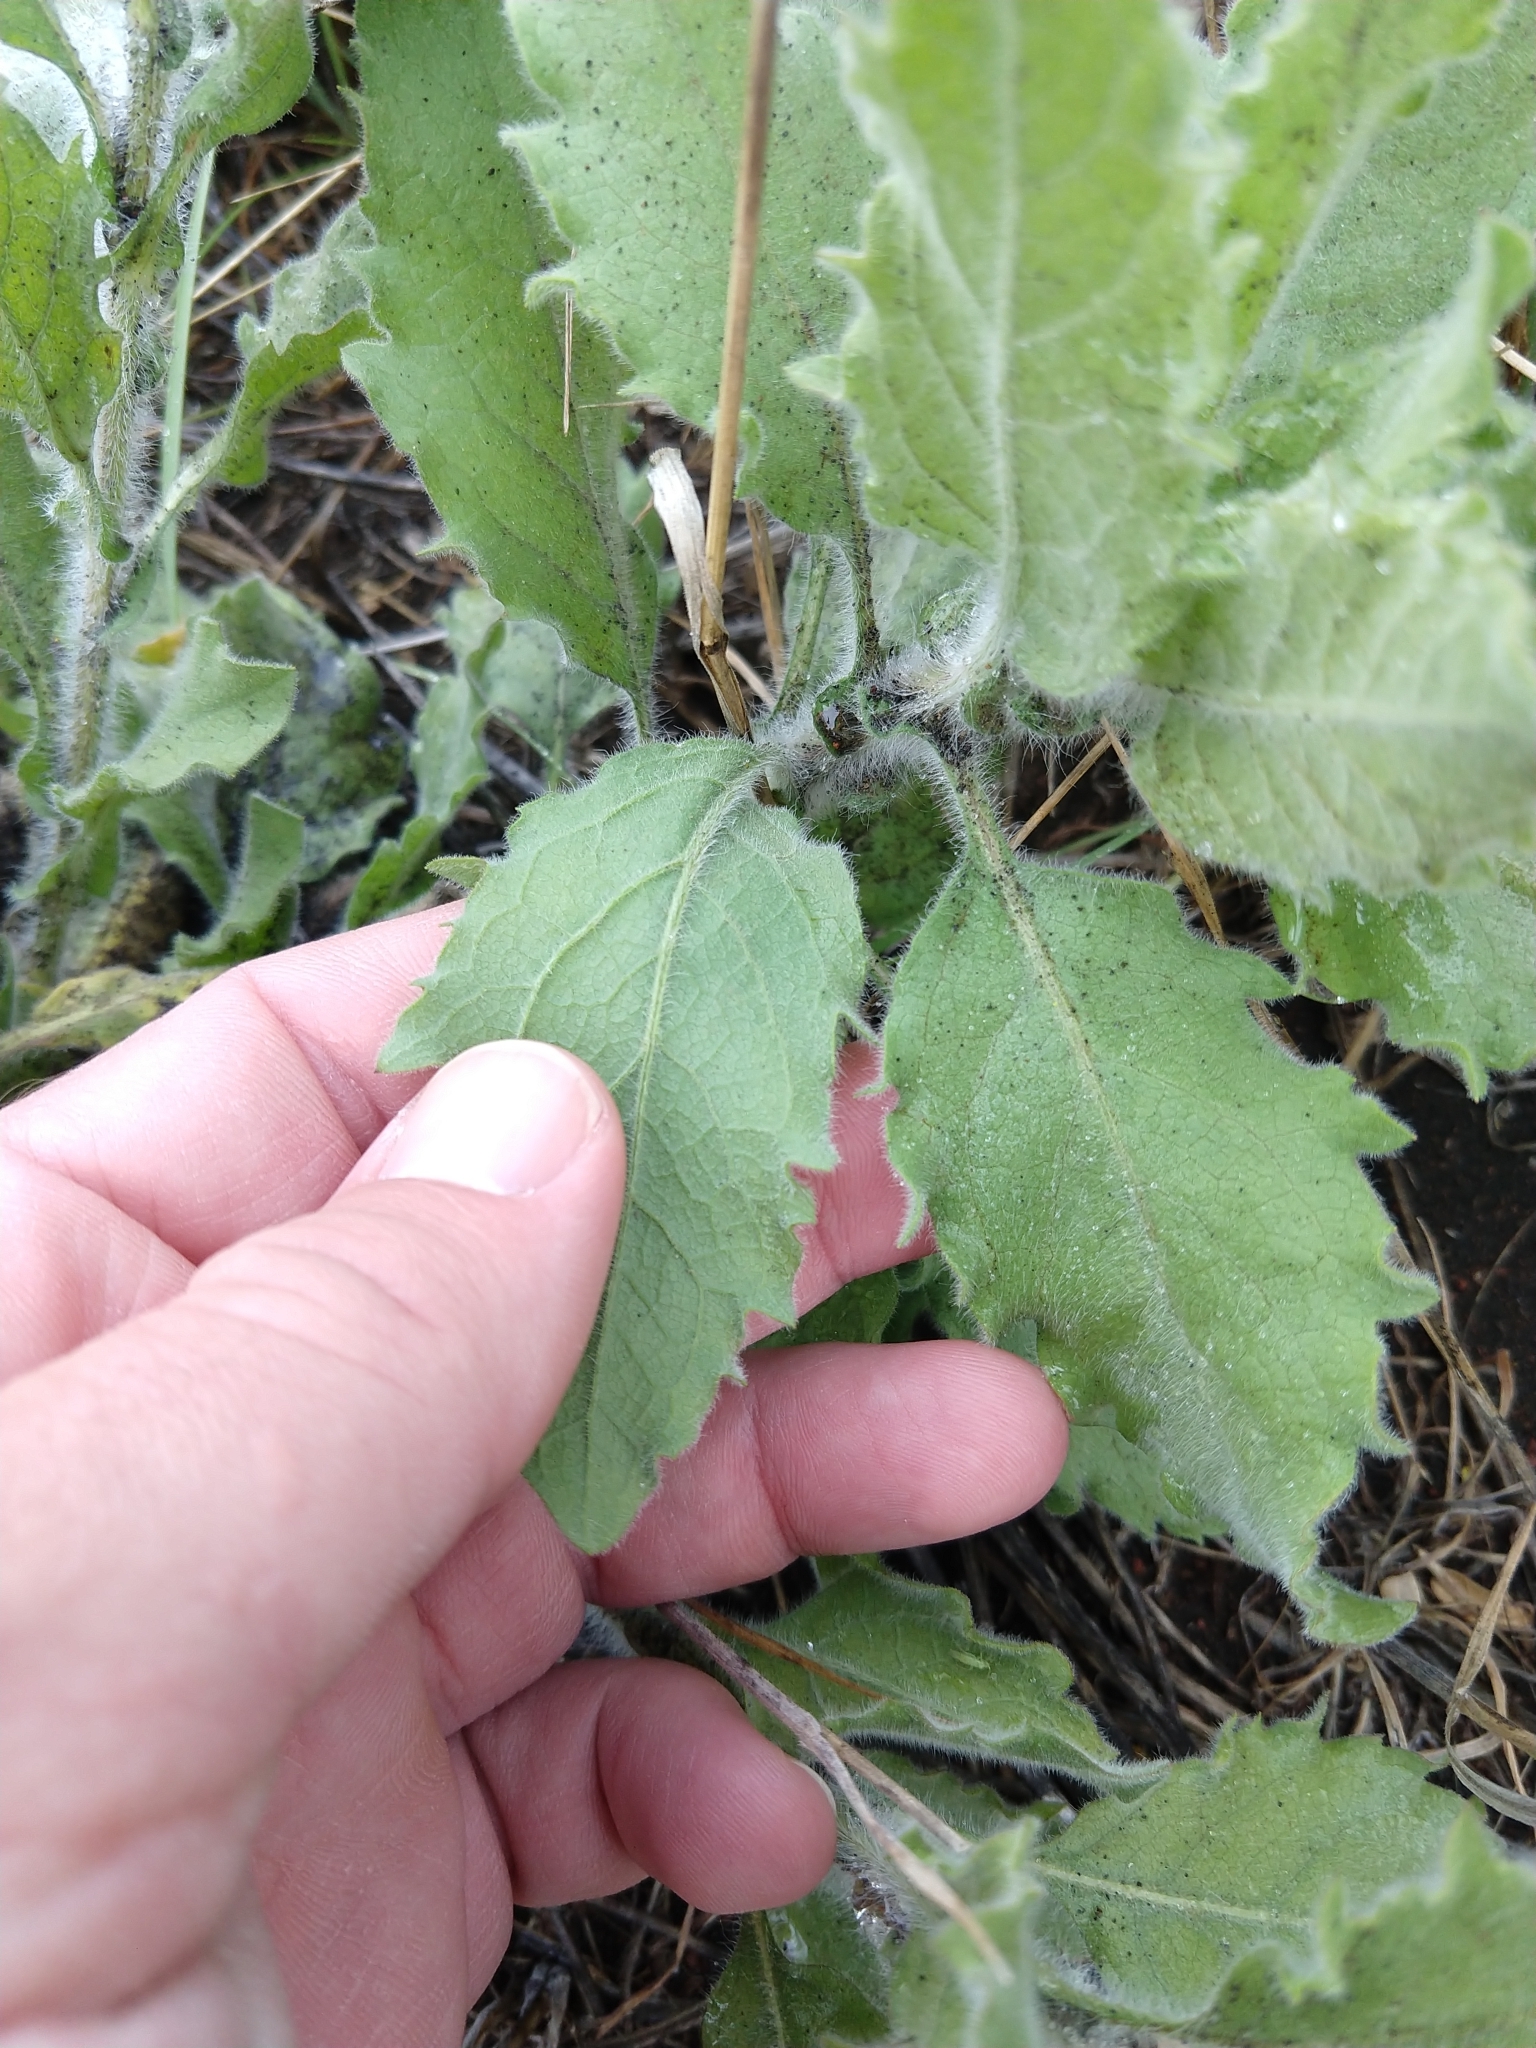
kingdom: Plantae
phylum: Tracheophyta
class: Magnoliopsida
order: Asterales
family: Asteraceae
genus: Heterotheca
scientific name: Heterotheca grandiflora
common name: Telegraphweed
